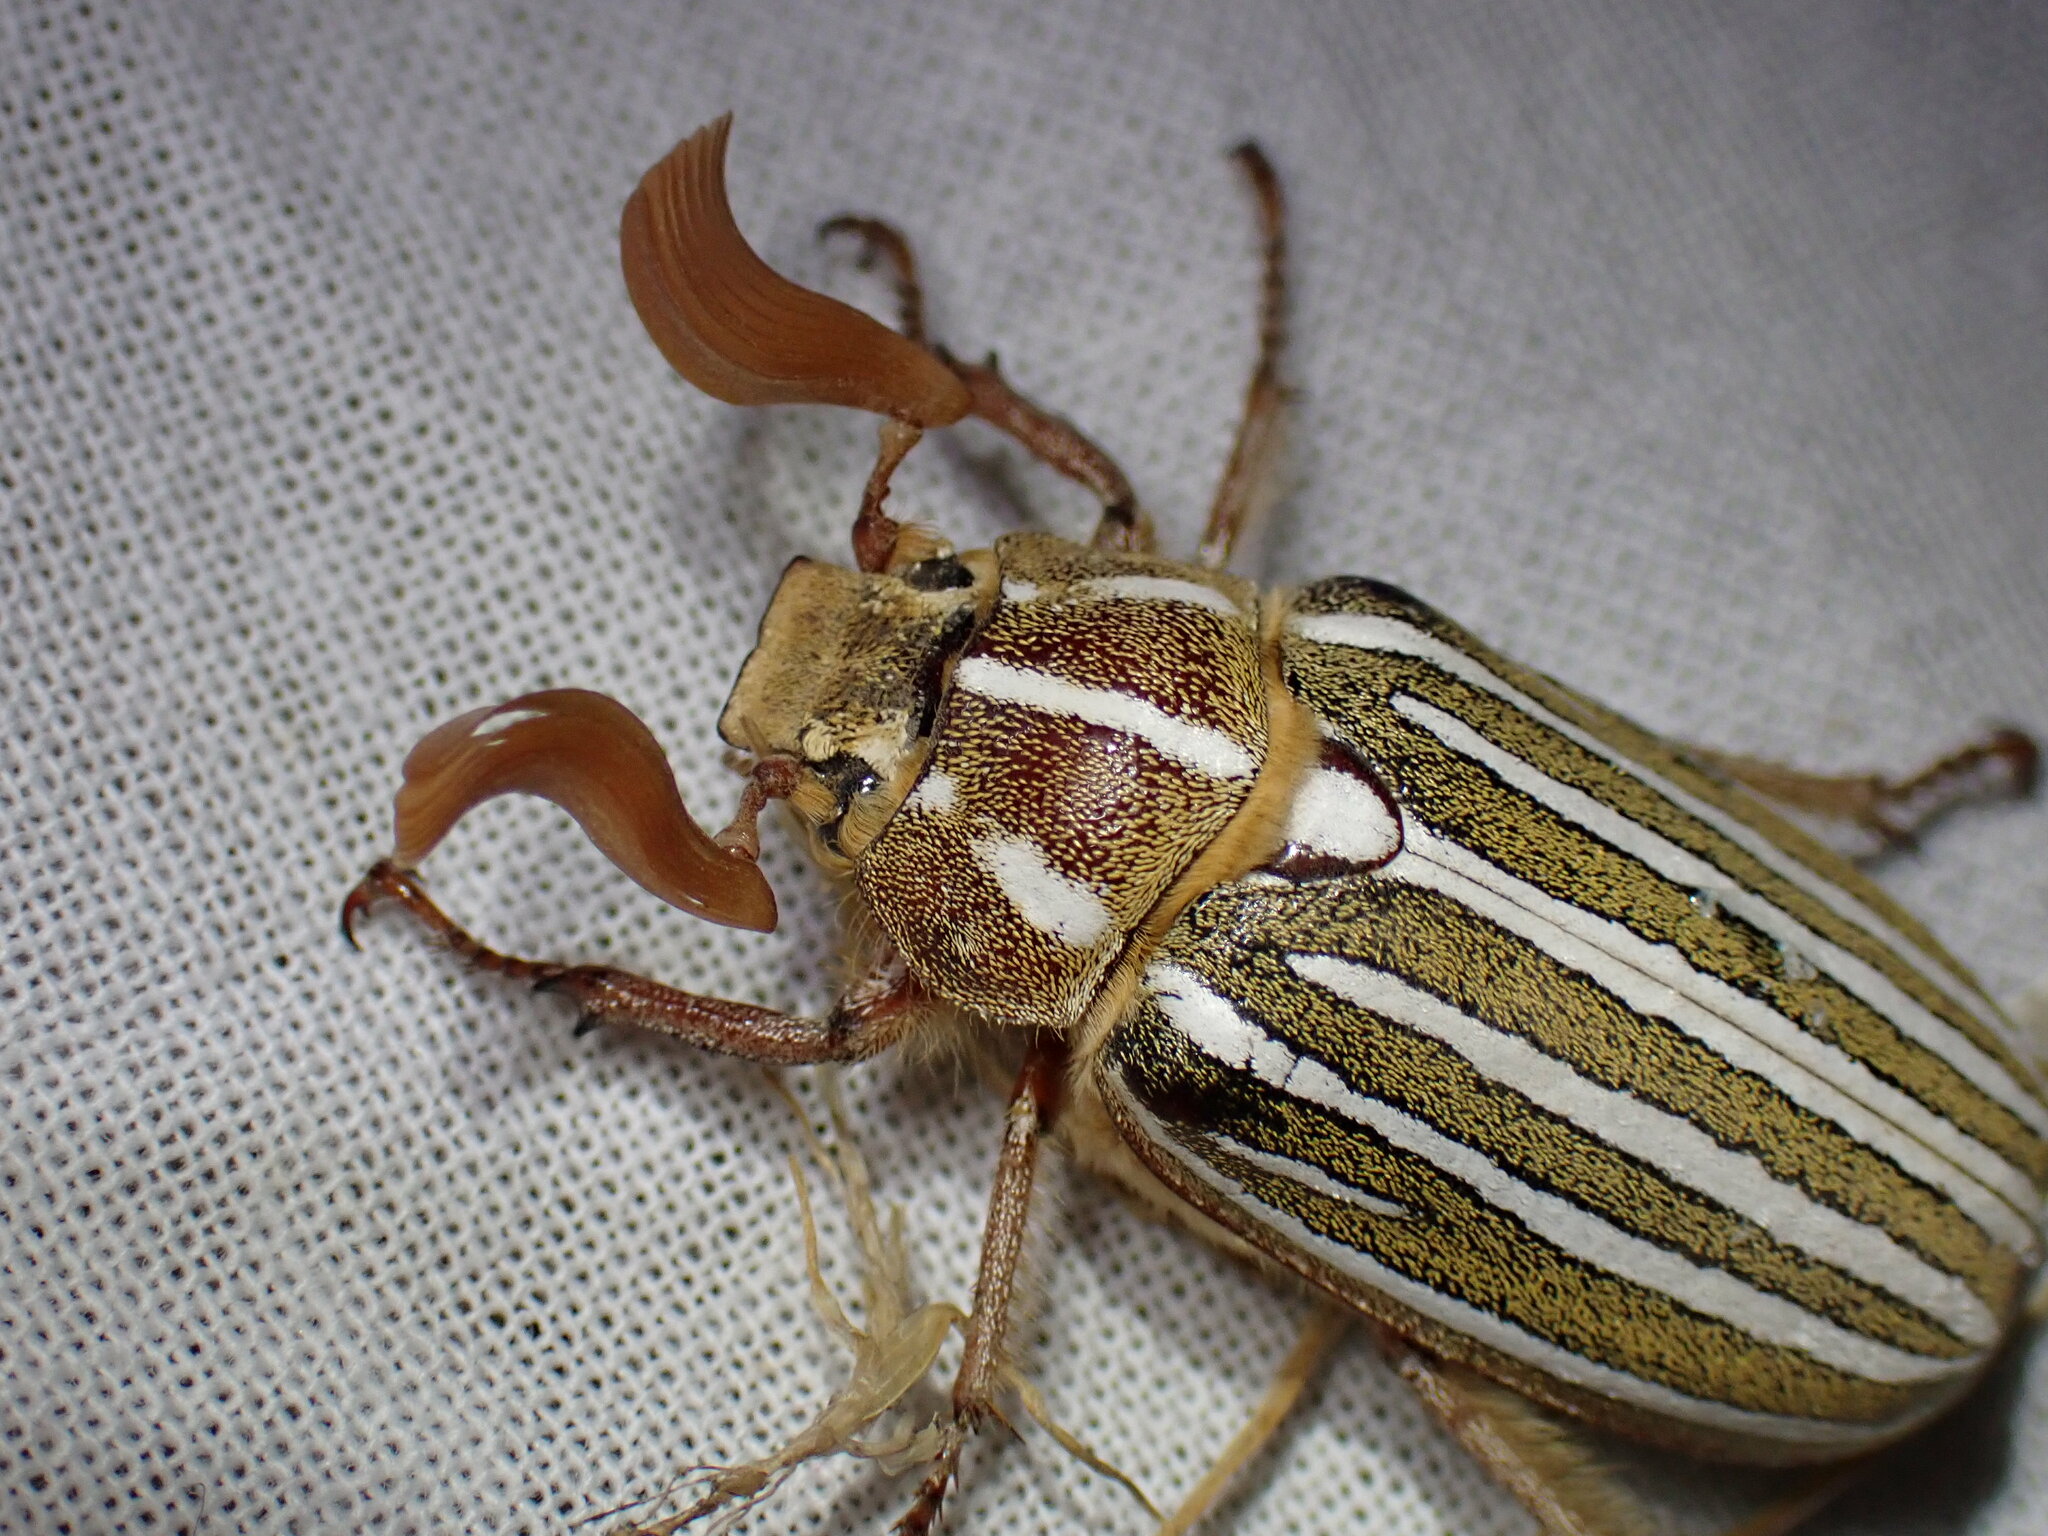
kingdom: Animalia
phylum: Arthropoda
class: Insecta
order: Coleoptera
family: Scarabaeidae
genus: Polyphylla
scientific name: Polyphylla decemlineata
